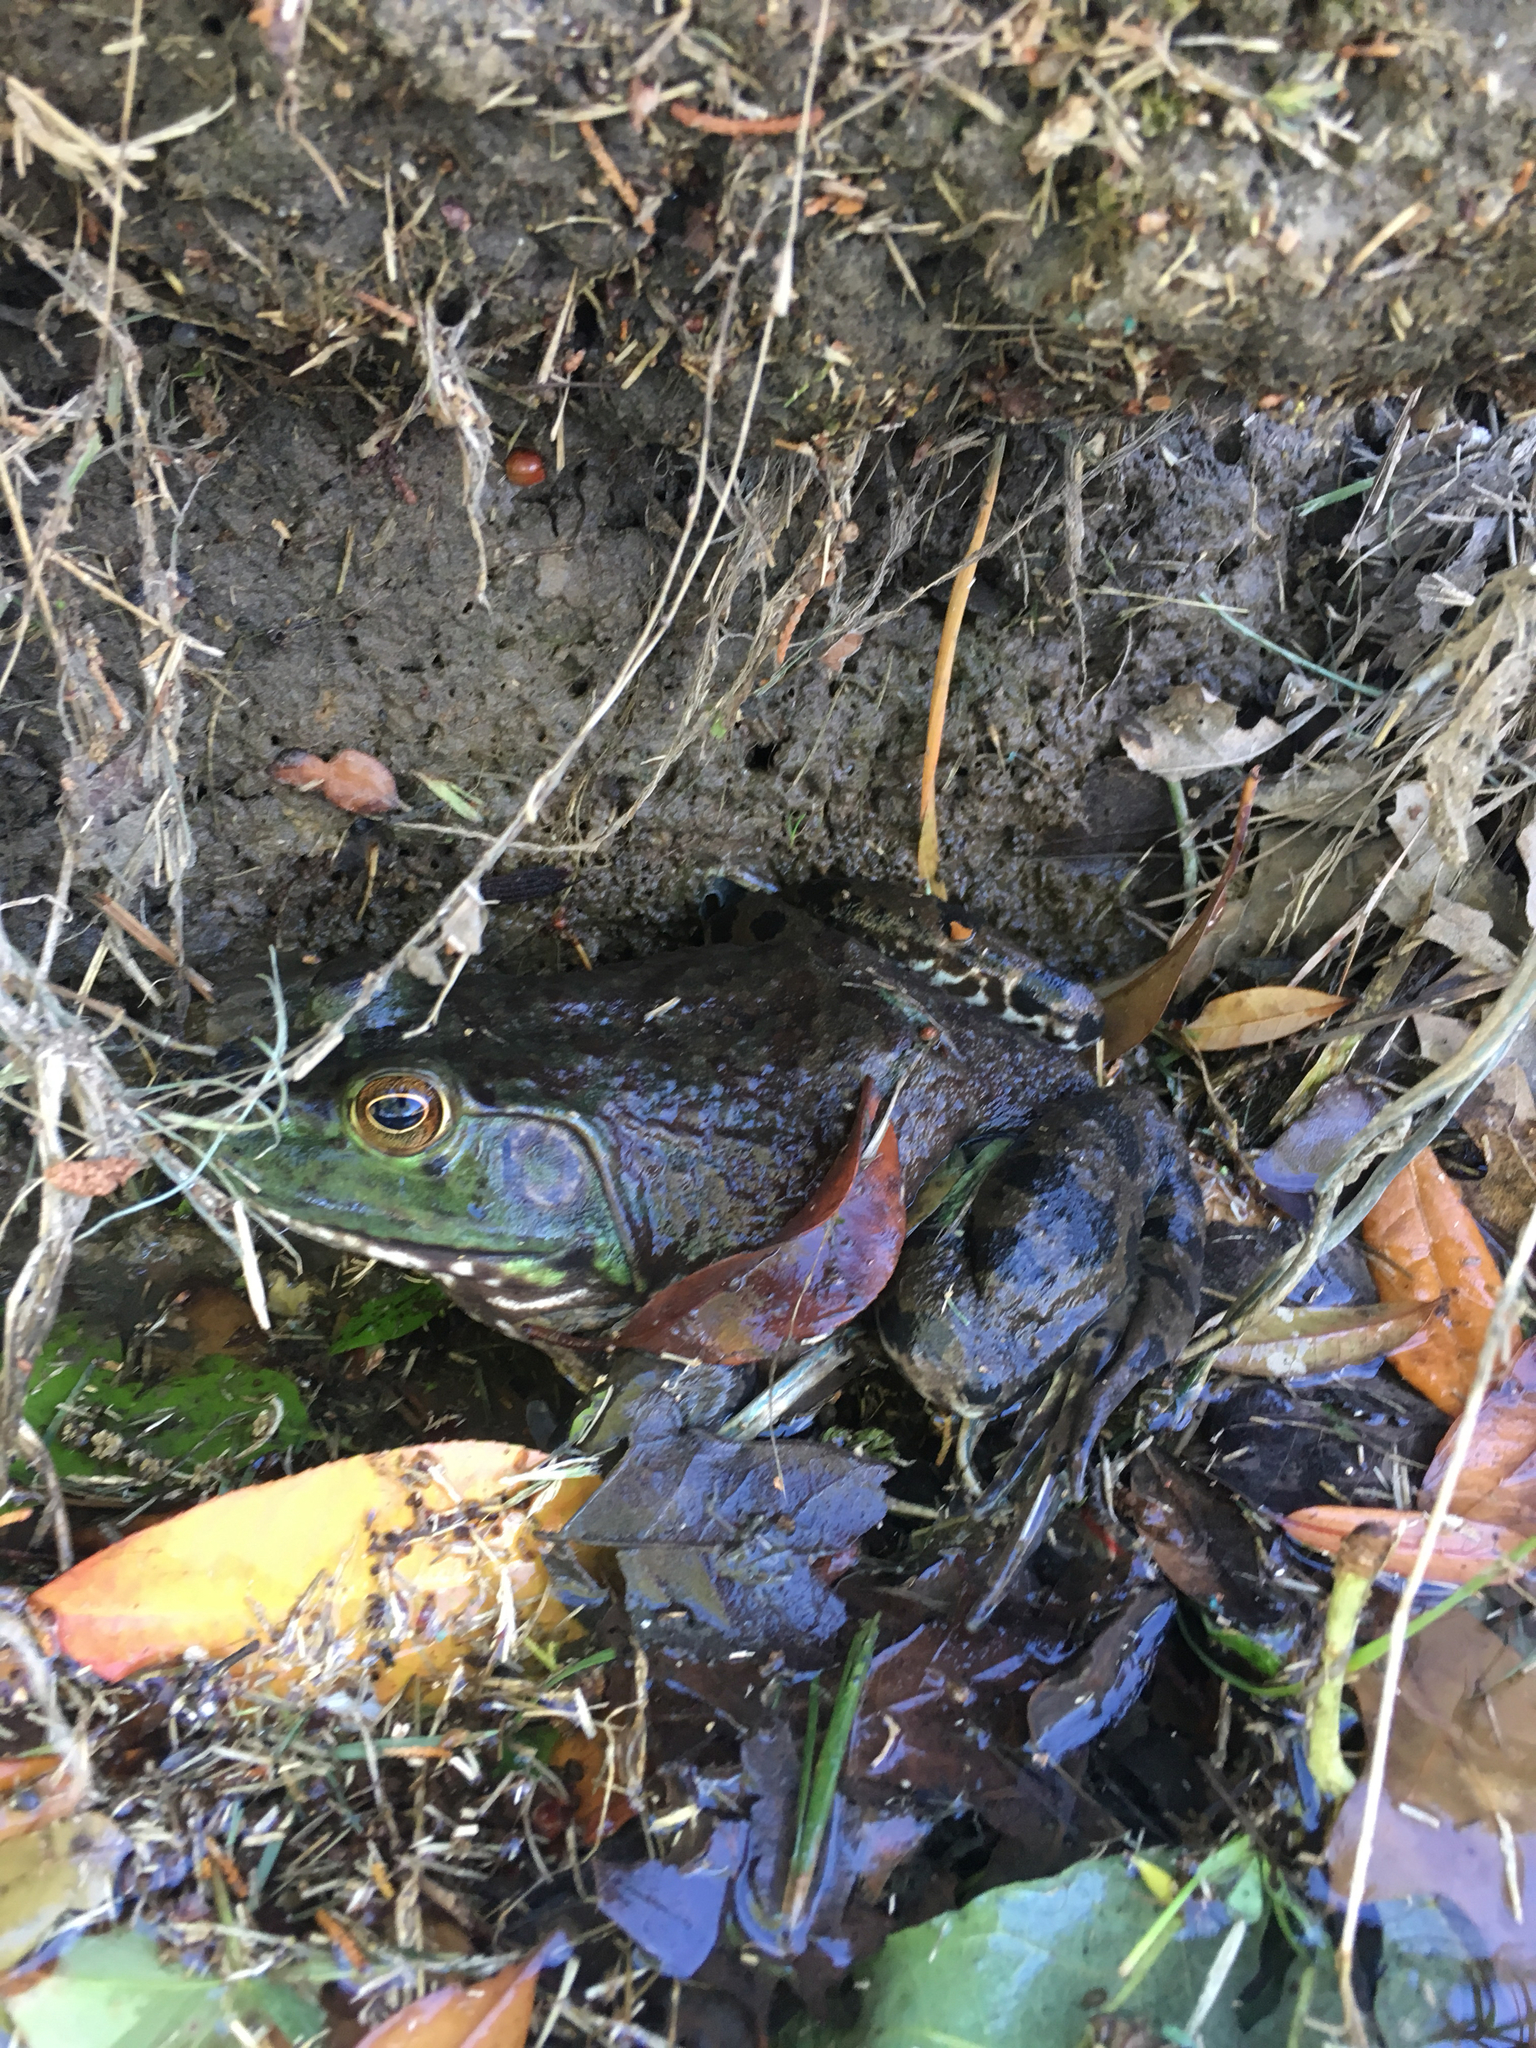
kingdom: Animalia
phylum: Chordata
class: Amphibia
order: Anura
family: Ranidae
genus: Lithobates
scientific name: Lithobates catesbeianus
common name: American bullfrog
